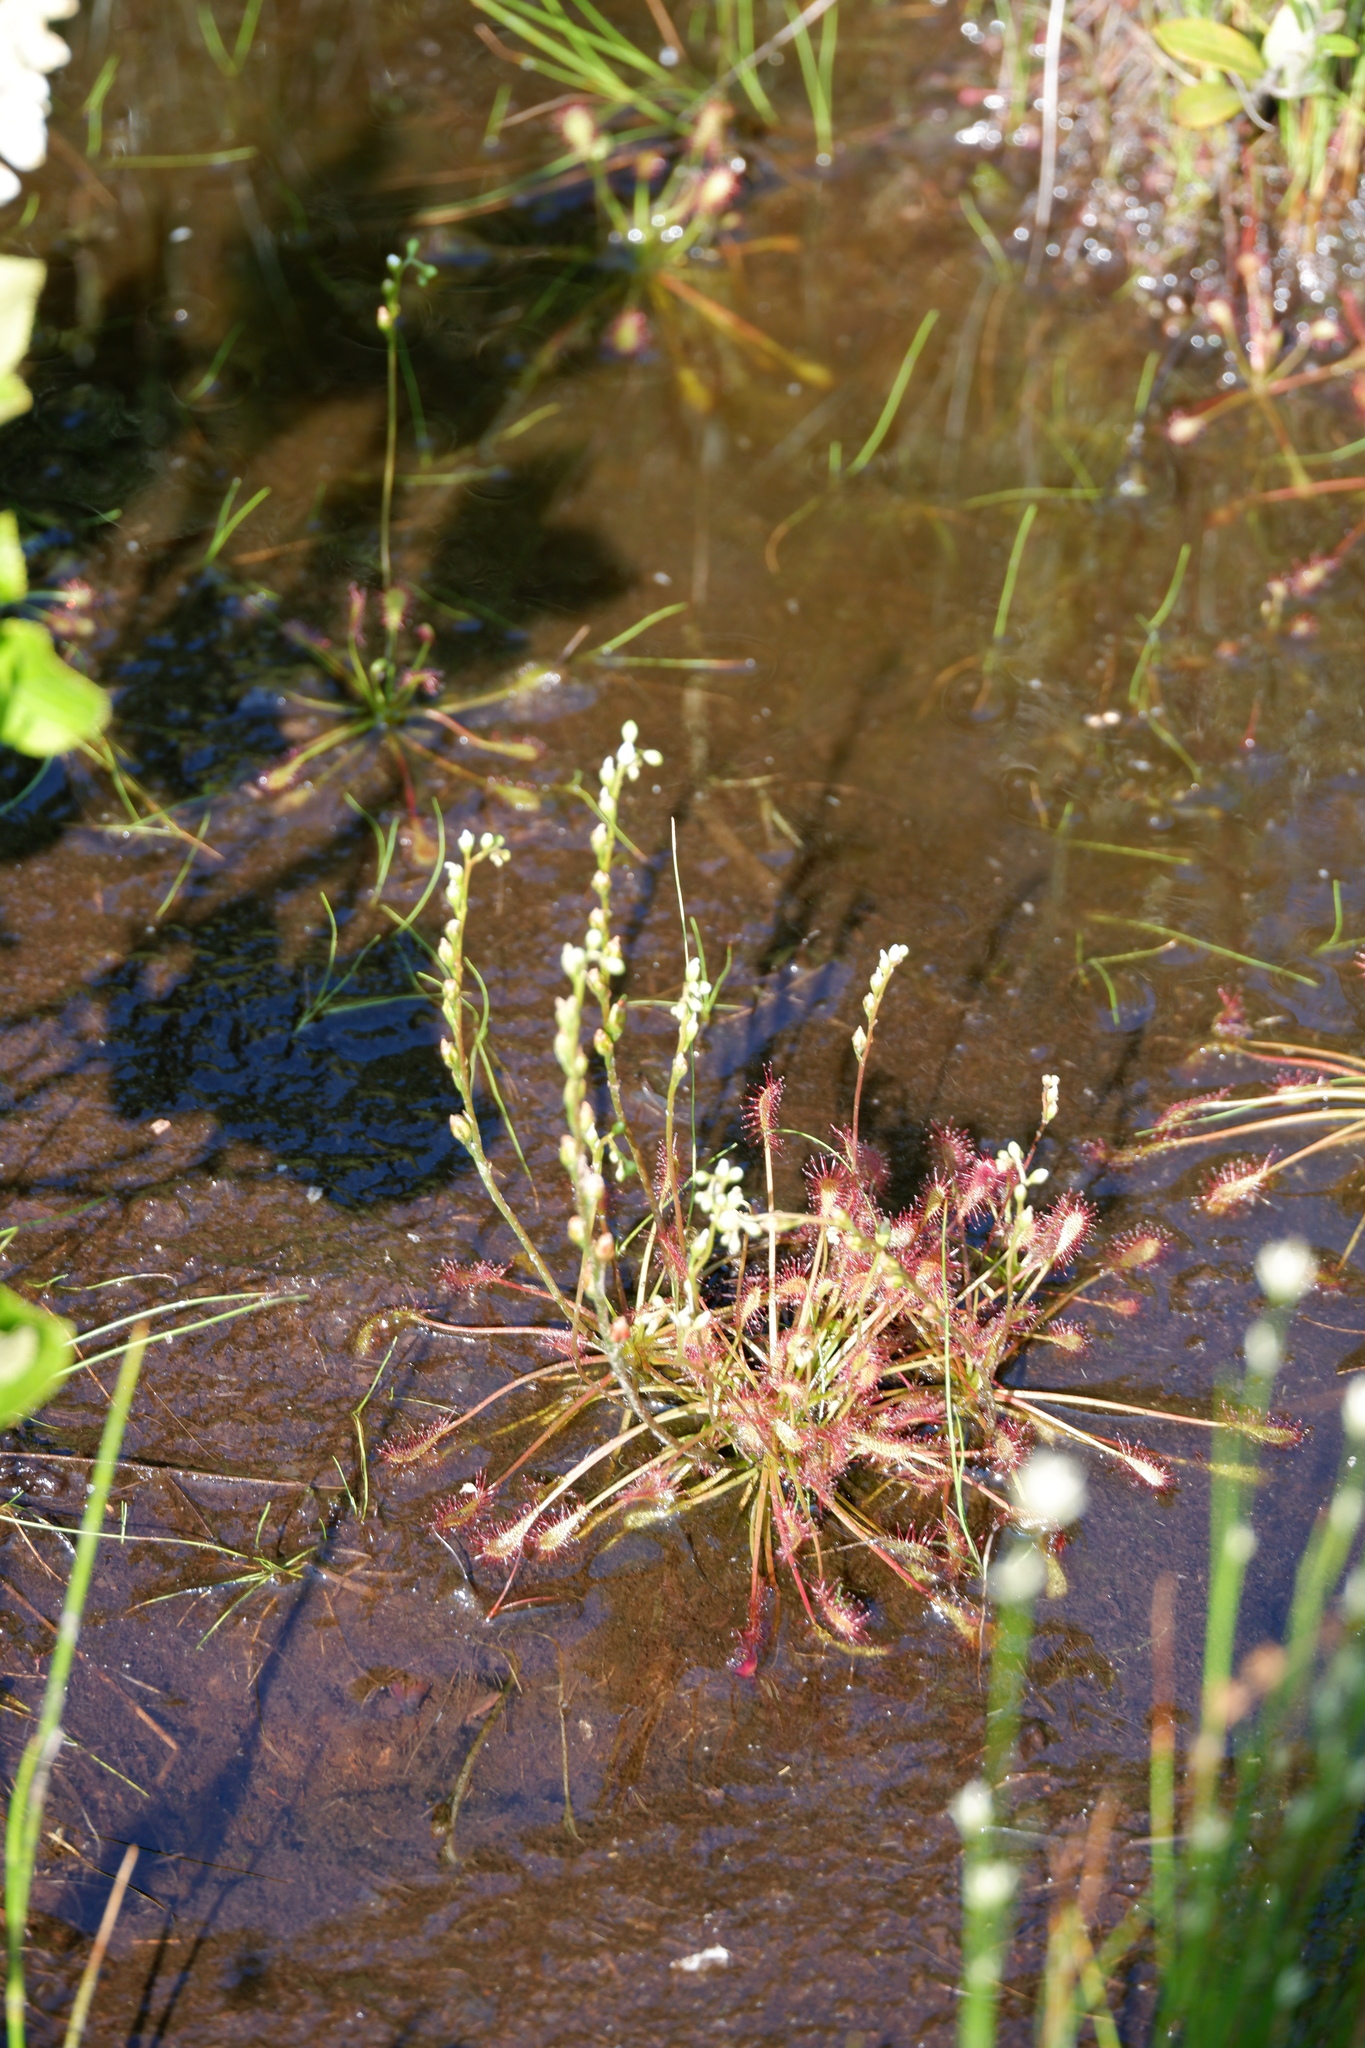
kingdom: Plantae
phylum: Tracheophyta
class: Magnoliopsida
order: Caryophyllales
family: Droseraceae
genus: Drosera
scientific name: Drosera intermedia
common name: Oblong-leaved sundew
